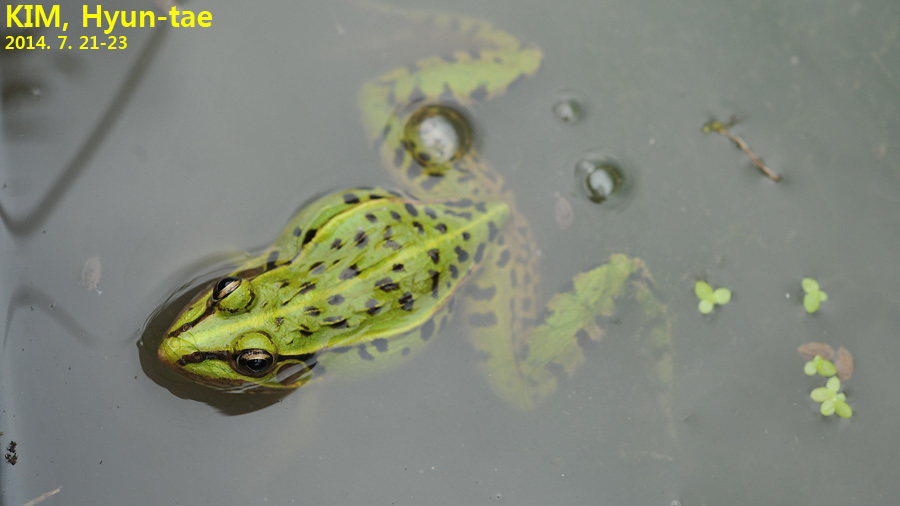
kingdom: Animalia
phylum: Chordata
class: Amphibia
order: Anura
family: Ranidae
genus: Pelophylax
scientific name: Pelophylax nigromaculatus
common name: Black-spotted pond frog
